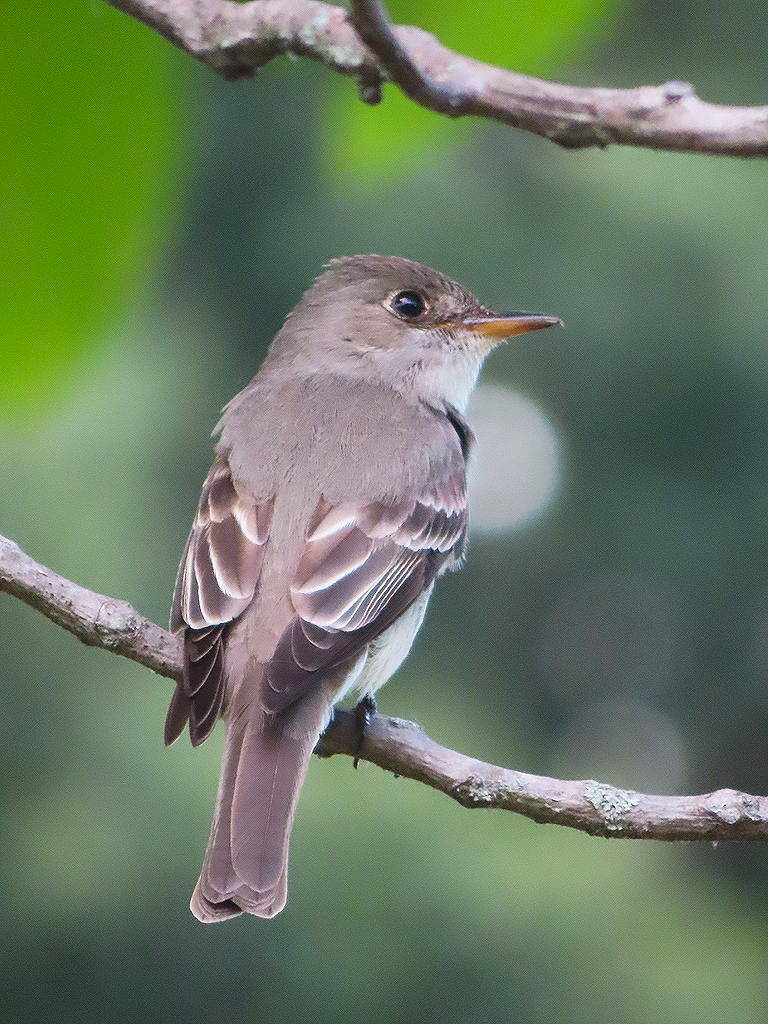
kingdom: Animalia
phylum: Chordata
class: Aves
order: Passeriformes
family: Tyrannidae
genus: Contopus
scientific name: Contopus virens
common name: Eastern wood-pewee
